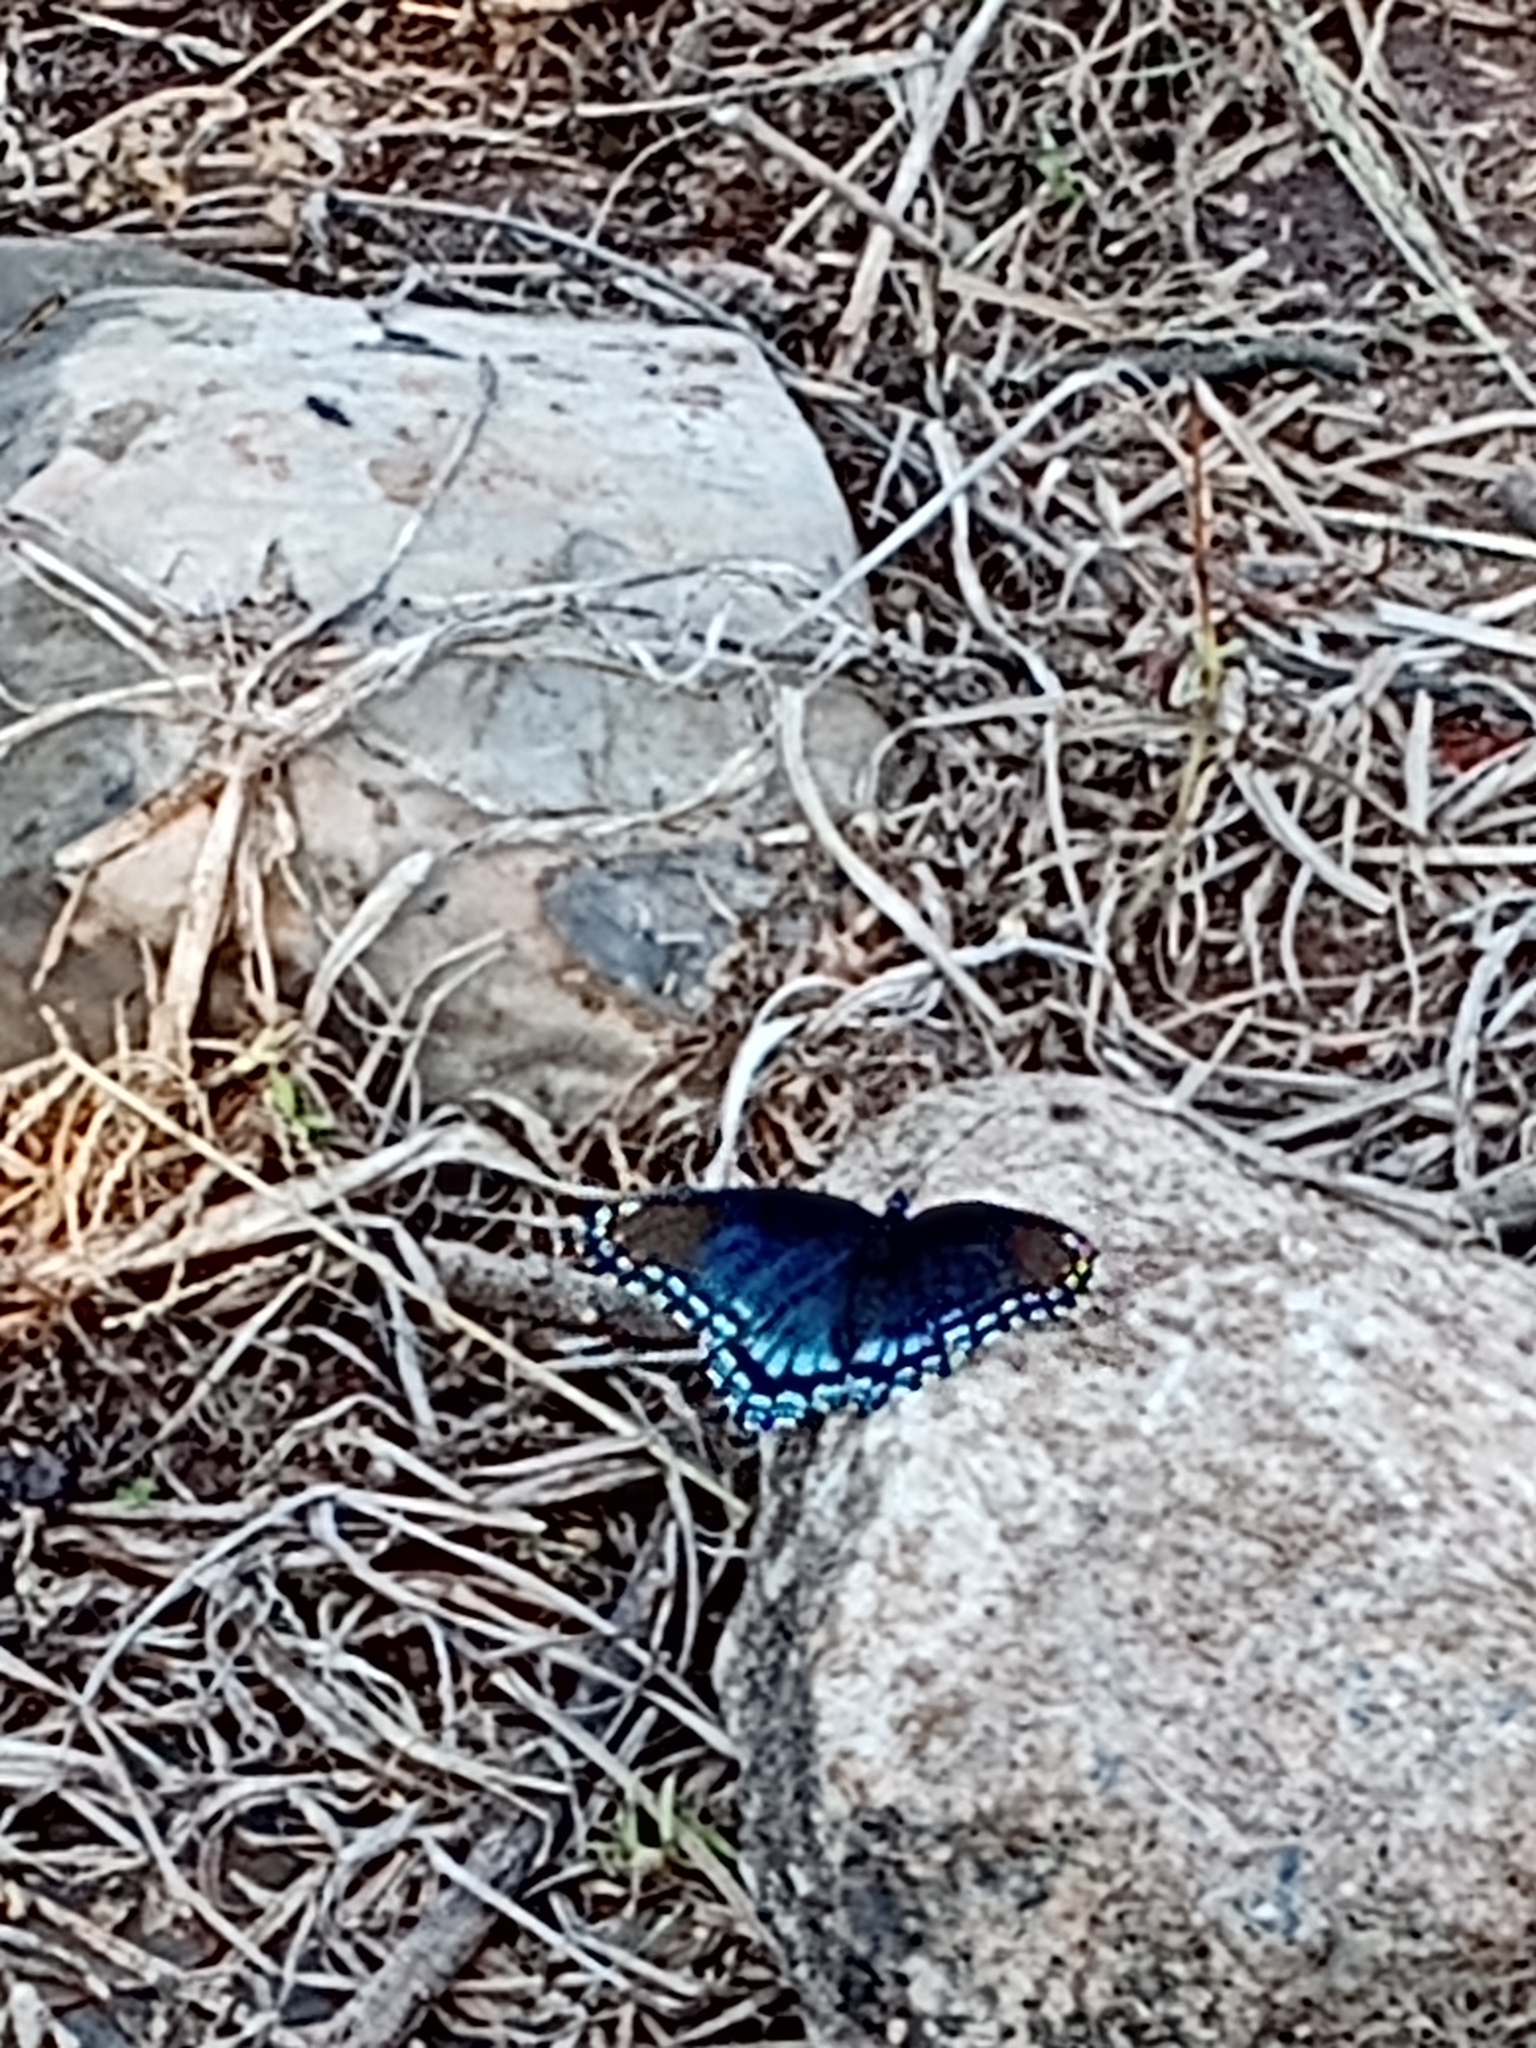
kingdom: Animalia
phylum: Arthropoda
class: Insecta
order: Lepidoptera
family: Nymphalidae
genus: Limenitis
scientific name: Limenitis astyanax
